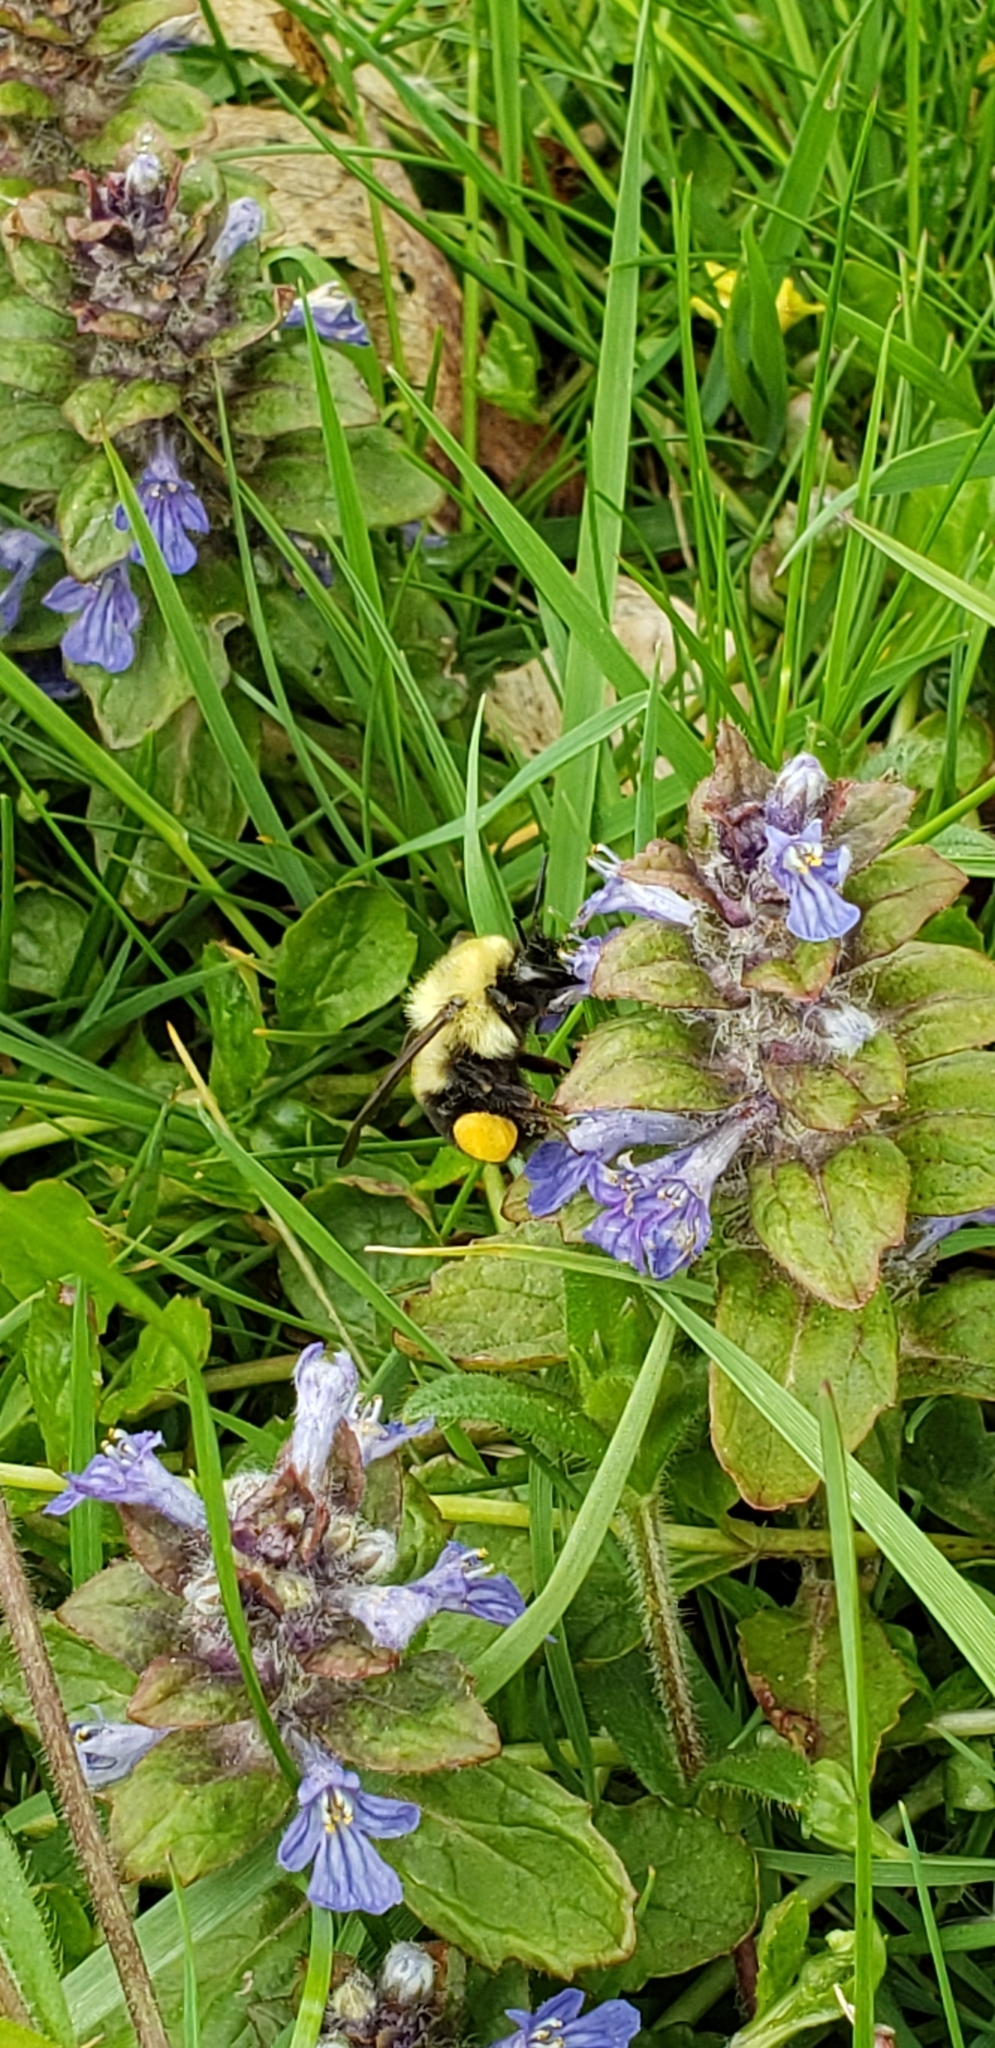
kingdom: Animalia
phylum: Arthropoda
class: Insecta
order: Hymenoptera
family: Apidae
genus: Bombus
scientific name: Bombus bimaculatus
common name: Two-spotted bumble bee
